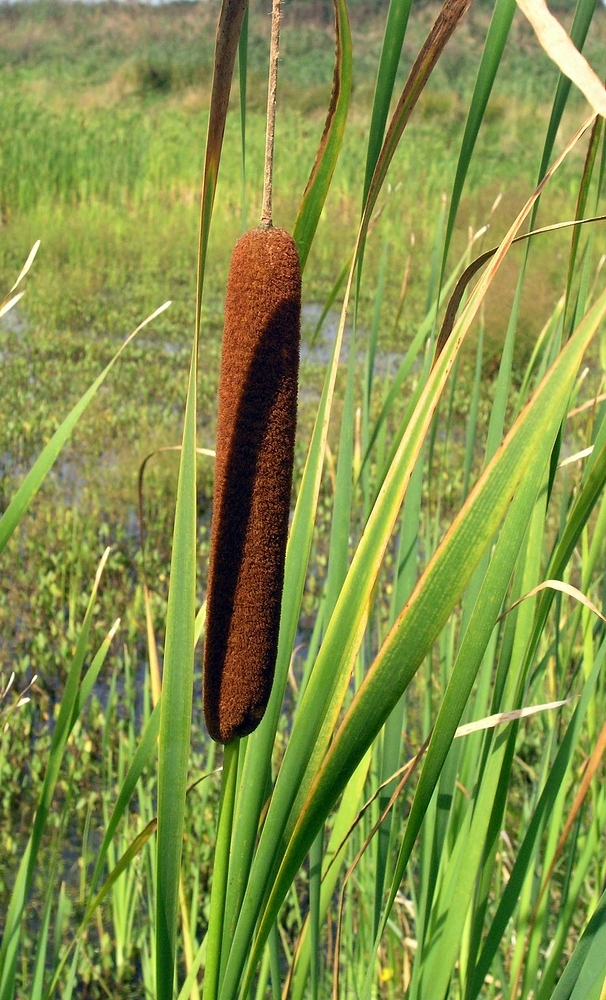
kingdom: Plantae
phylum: Tracheophyta
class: Liliopsida
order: Poales
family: Typhaceae
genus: Typha
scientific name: Typha latifolia
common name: Broadleaf cattail
